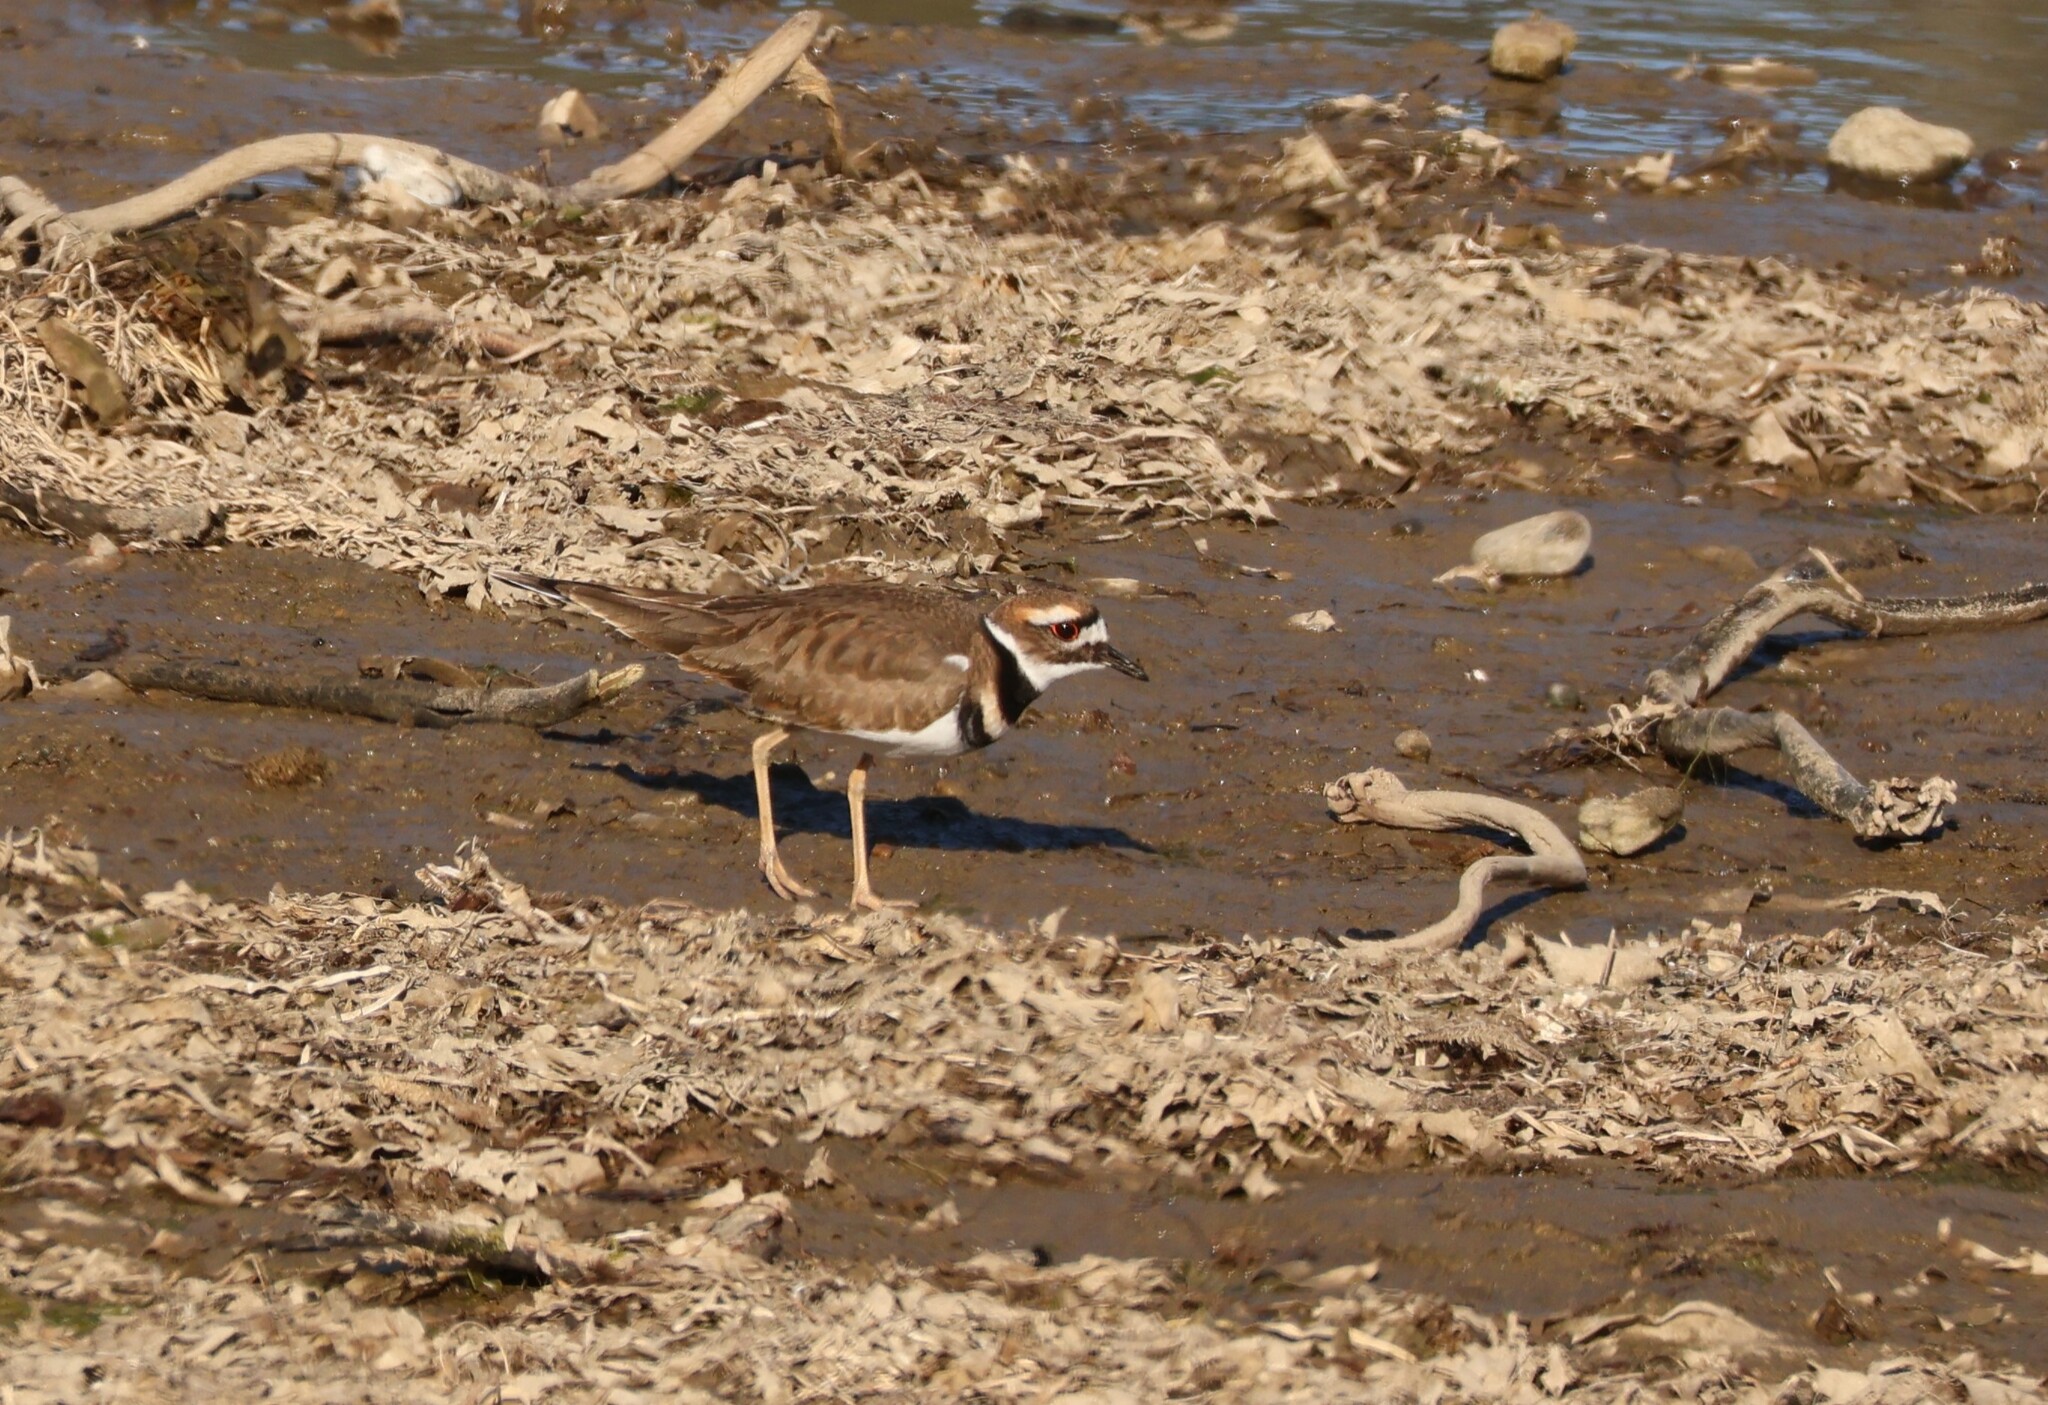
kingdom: Animalia
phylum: Chordata
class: Aves
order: Charadriiformes
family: Charadriidae
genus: Charadrius
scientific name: Charadrius vociferus
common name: Killdeer
